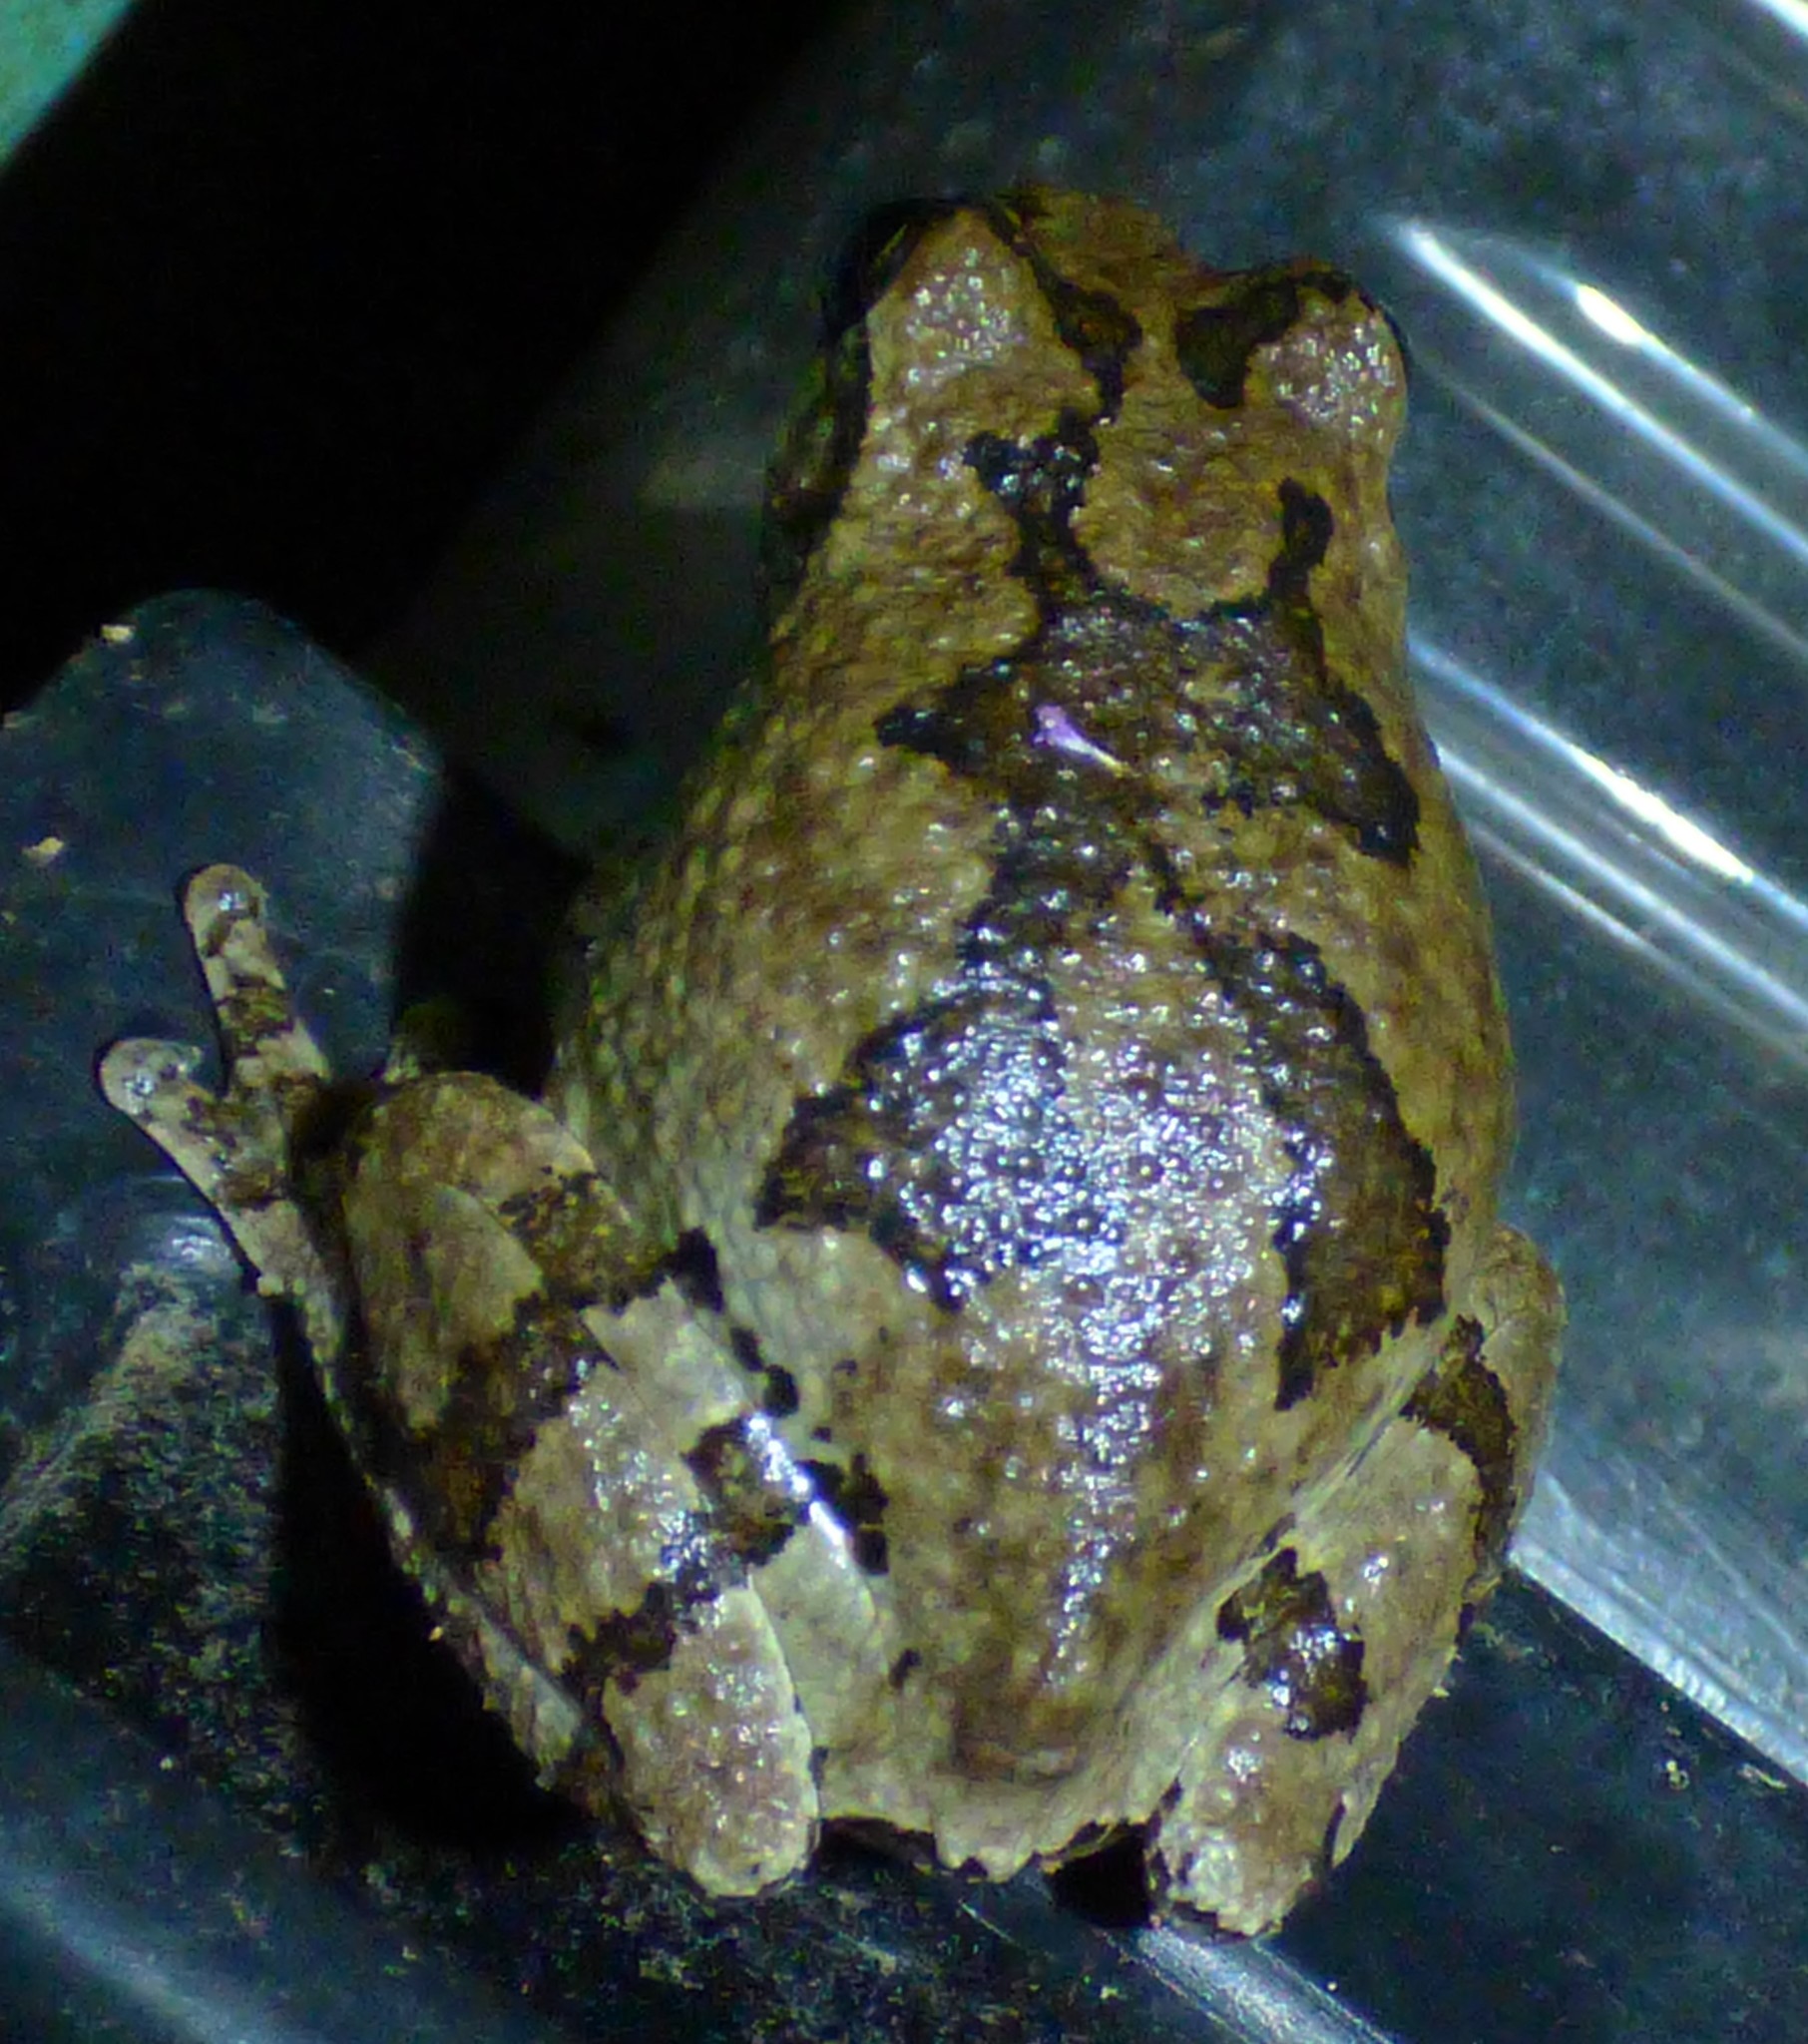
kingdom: Animalia
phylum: Chordata
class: Amphibia
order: Anura
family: Hylidae
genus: Dryophytes
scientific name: Dryophytes chrysoscelis
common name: Cope's gray treefrog
